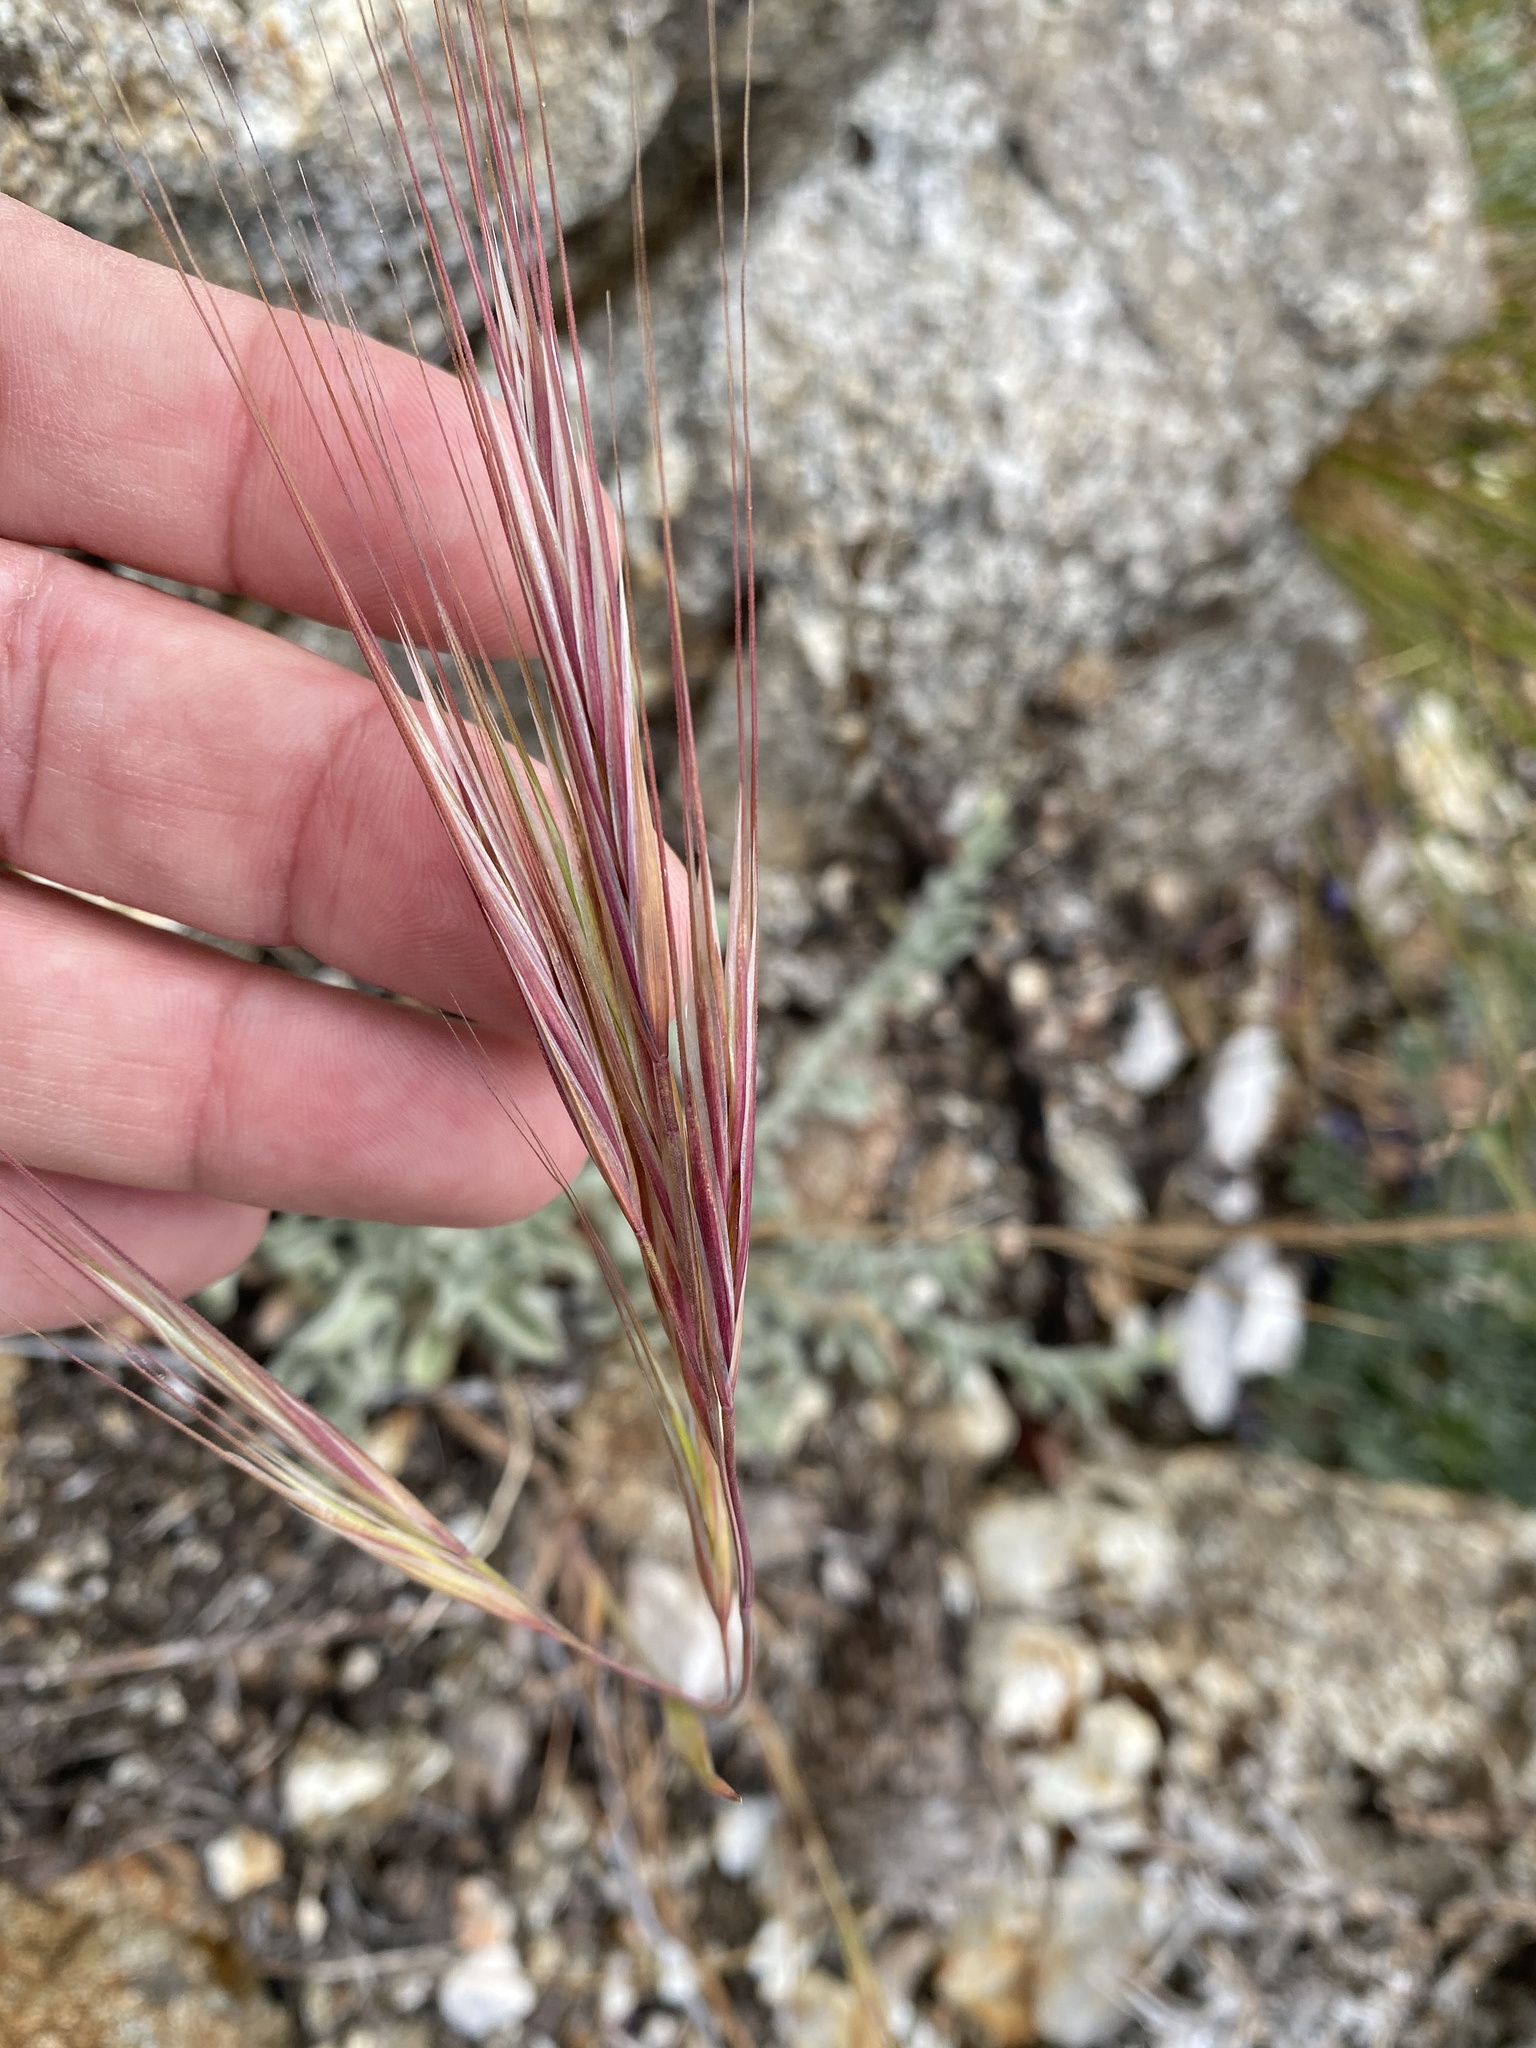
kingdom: Plantae
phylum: Tracheophyta
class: Liliopsida
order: Poales
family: Poaceae
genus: Bromus
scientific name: Bromus diandrus
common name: Ripgut brome
